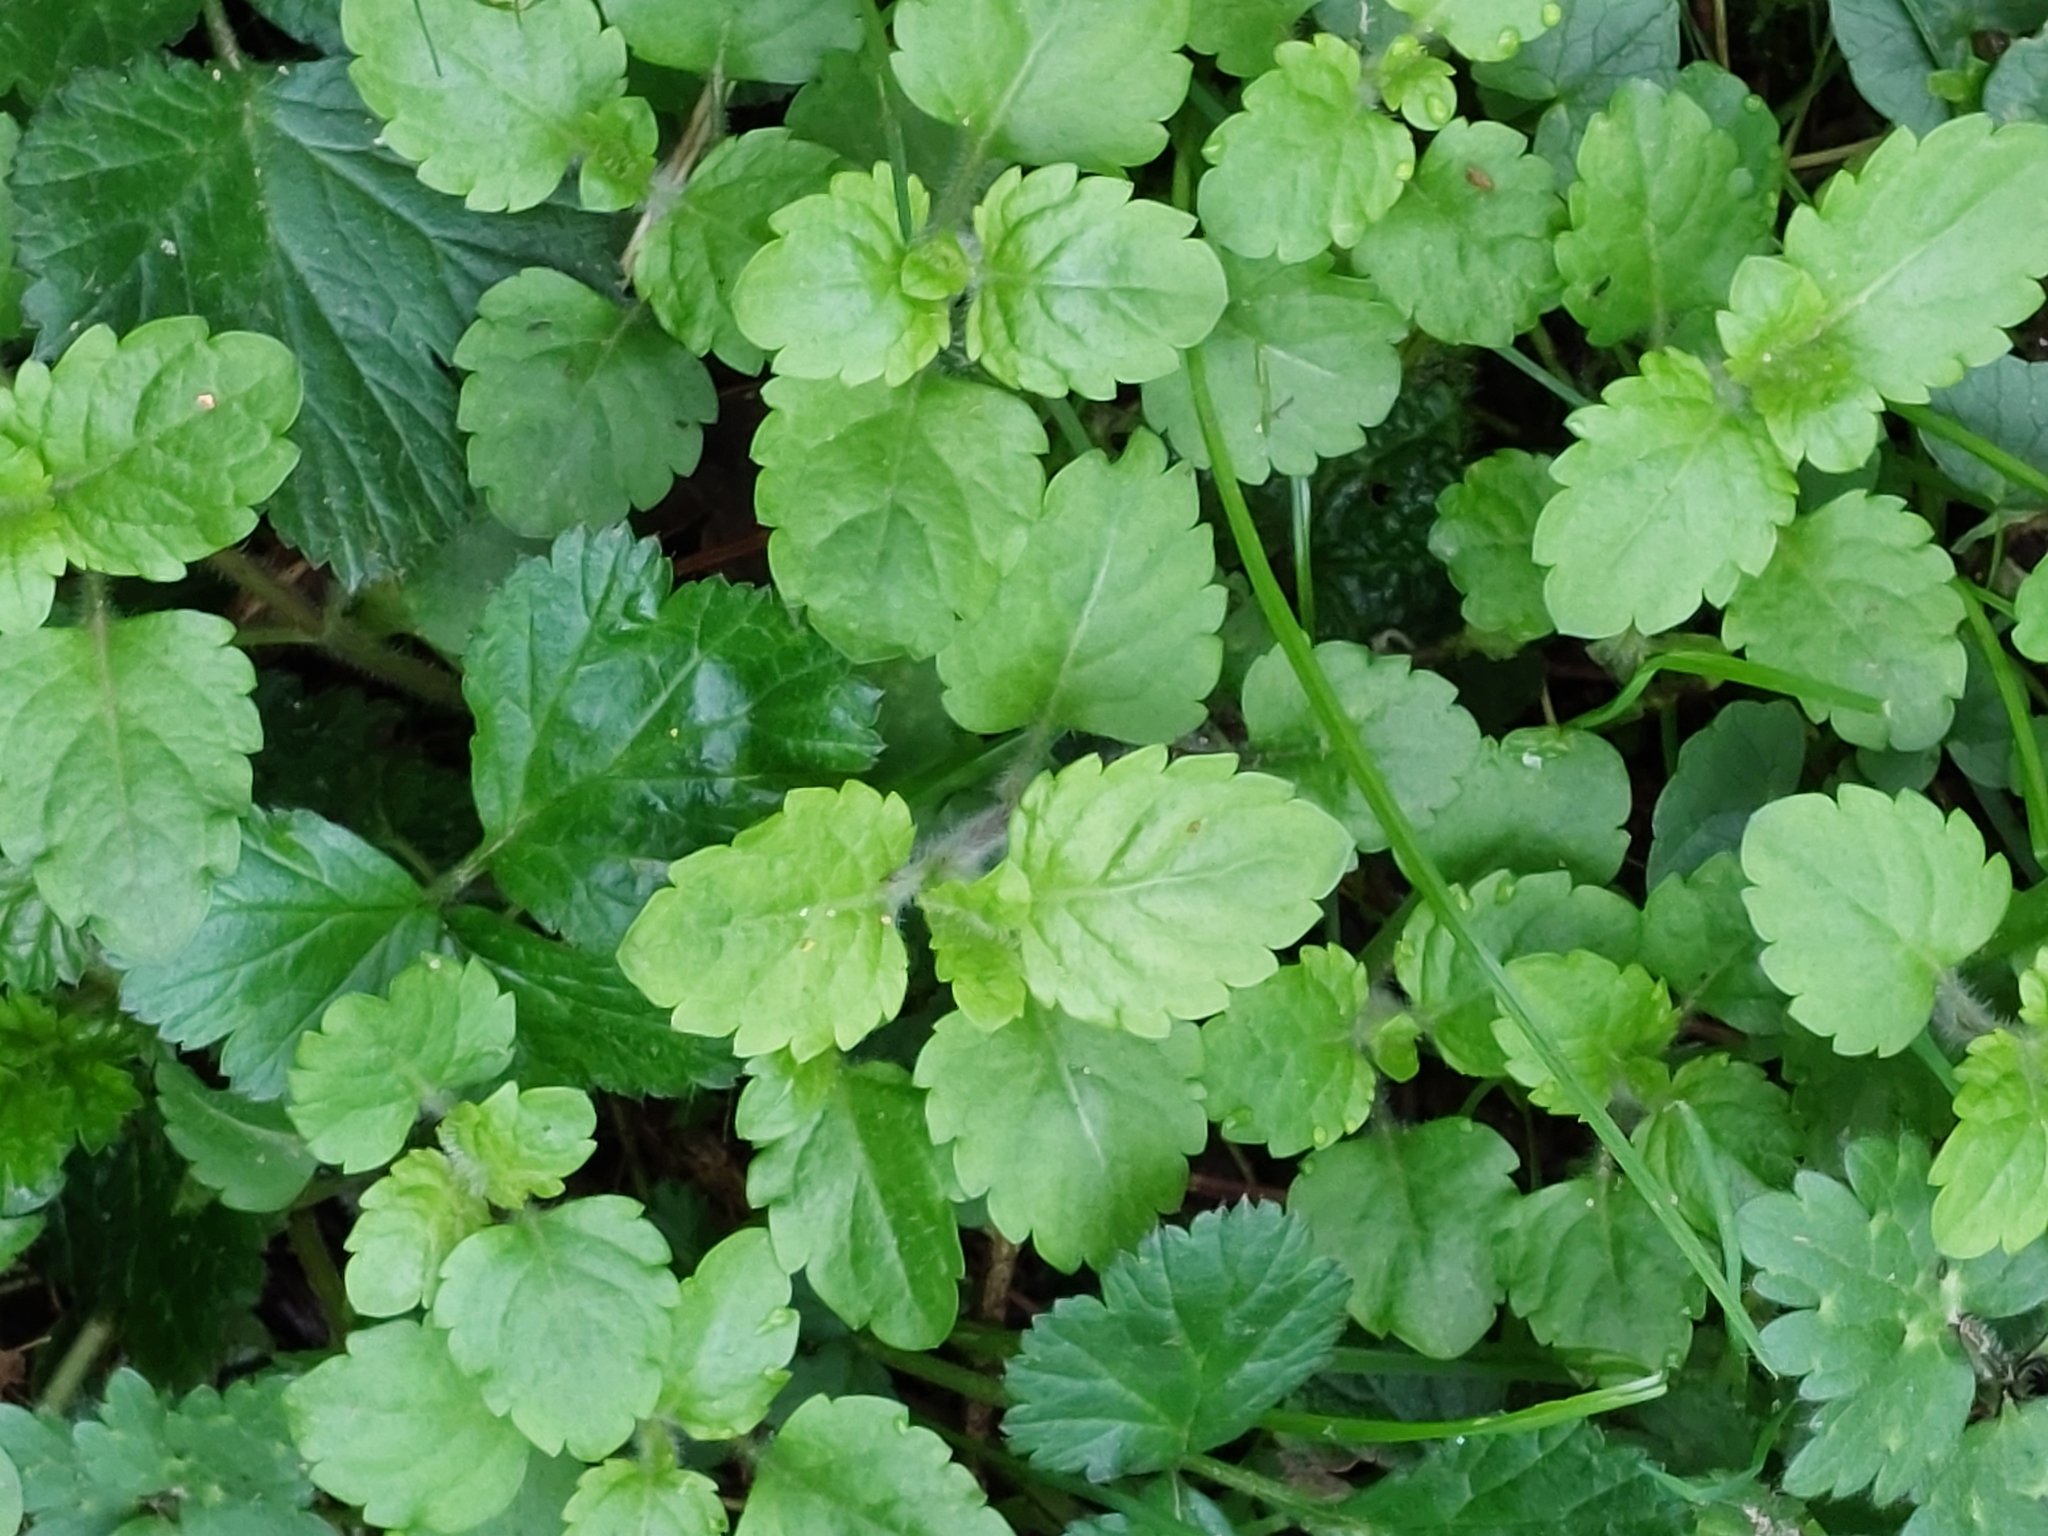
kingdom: Plantae
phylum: Tracheophyta
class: Magnoliopsida
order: Lamiales
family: Plantaginaceae
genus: Veronica
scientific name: Veronica montana
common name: Wood speedwell
